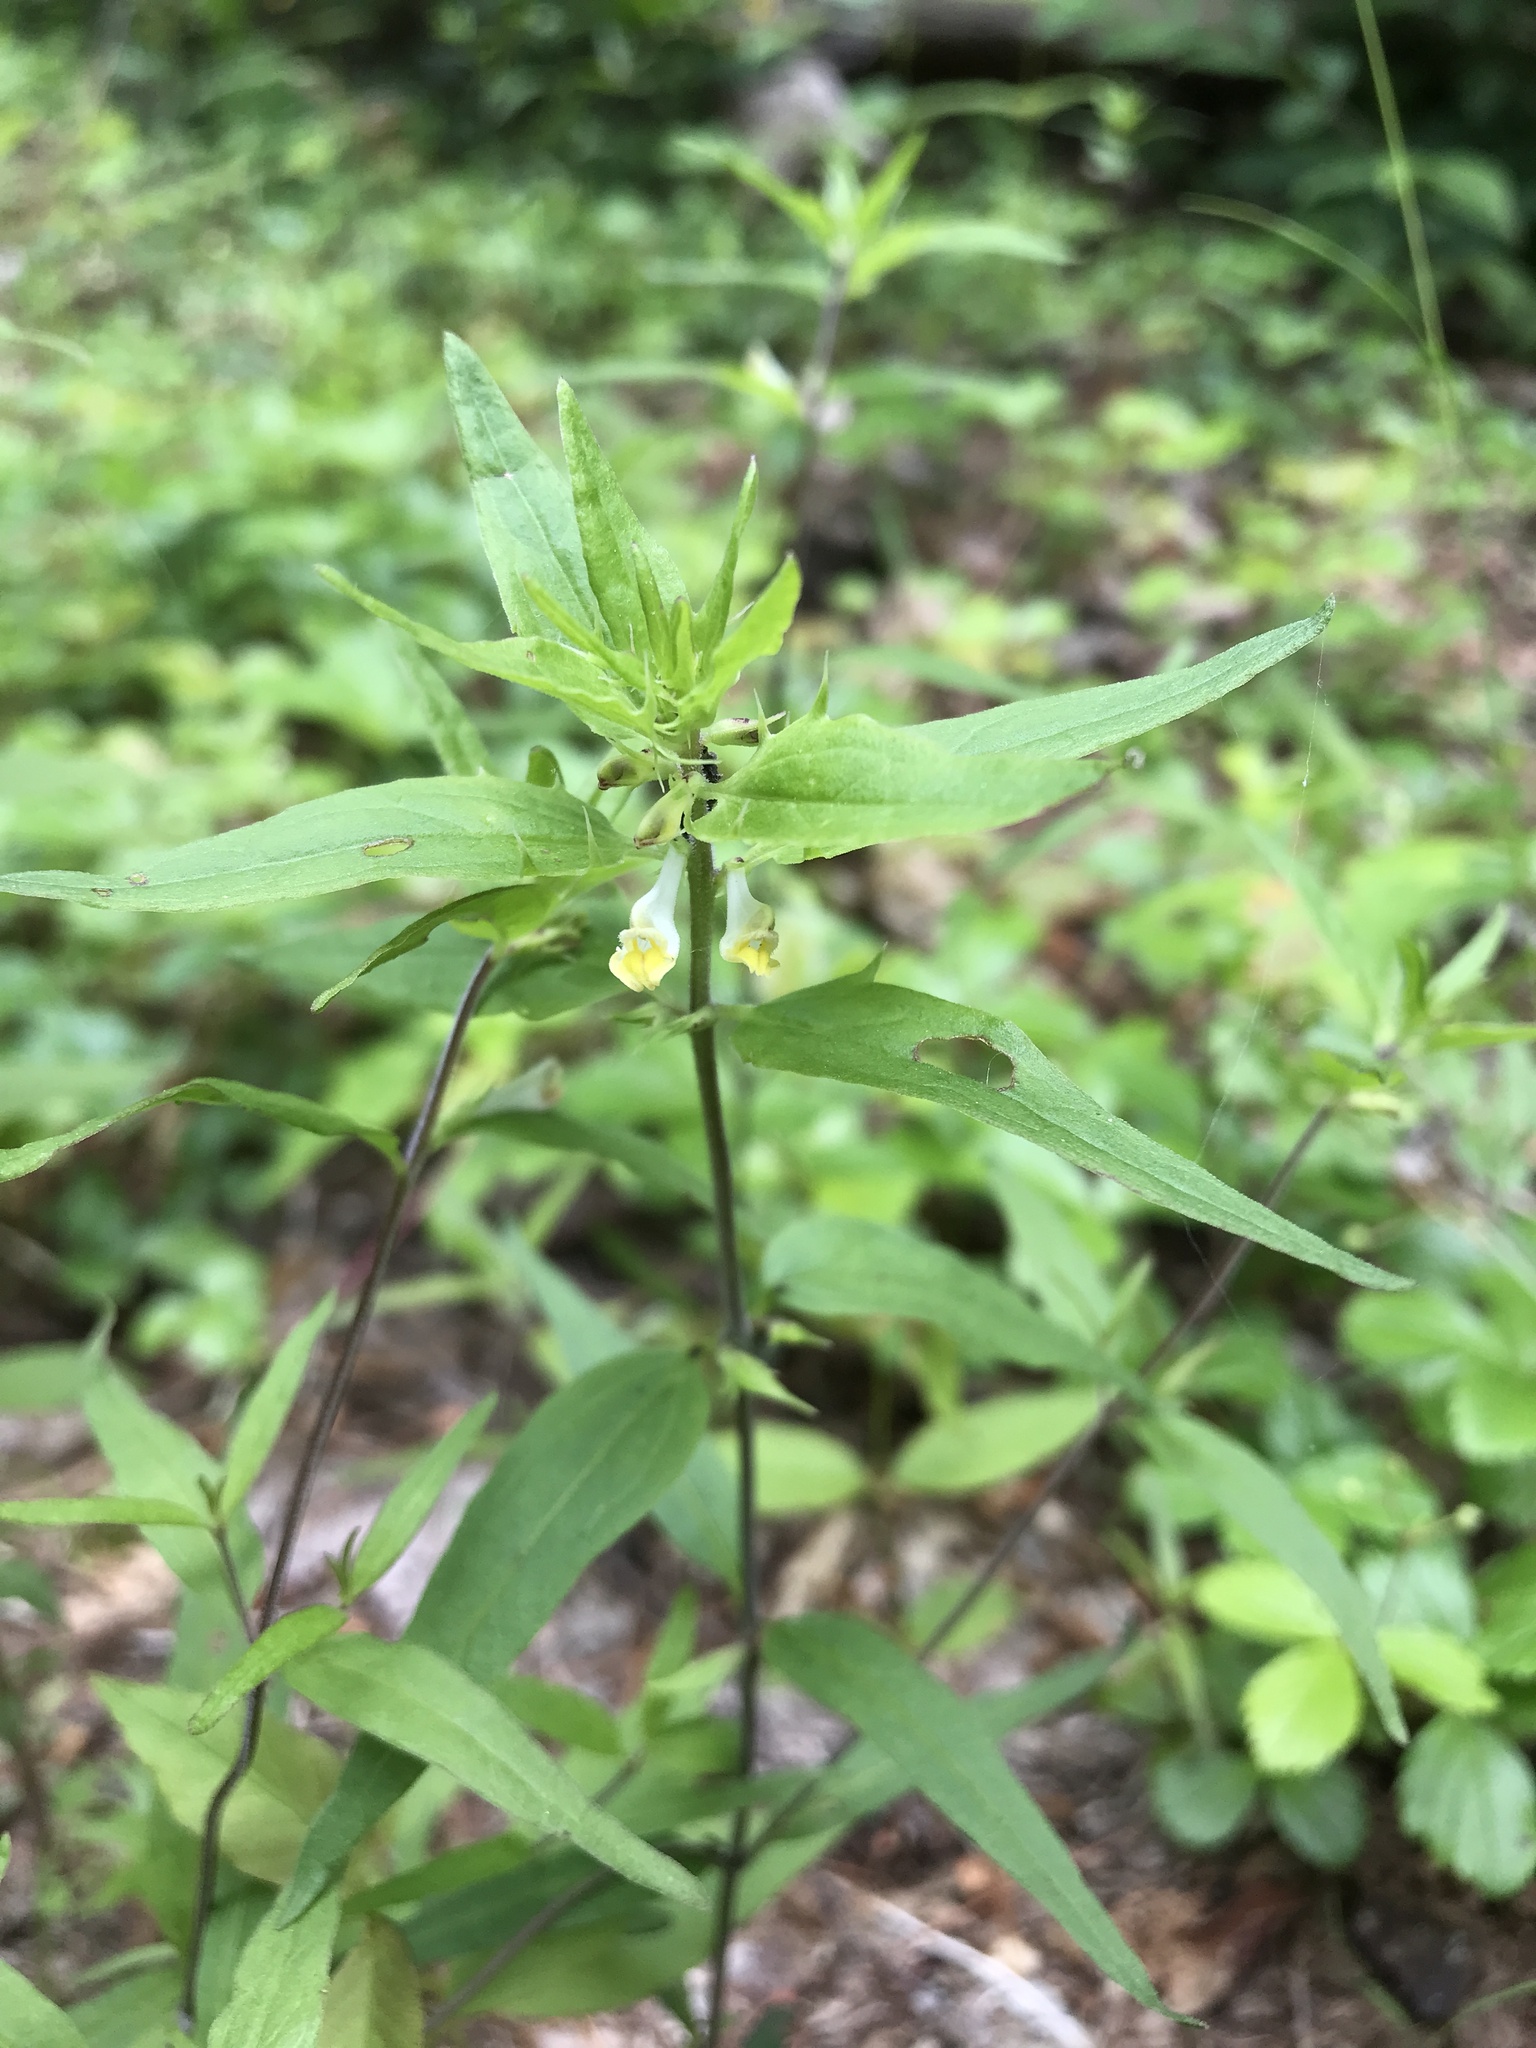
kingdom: Plantae
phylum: Tracheophyta
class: Magnoliopsida
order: Lamiales
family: Orobanchaceae
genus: Melampyrum
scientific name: Melampyrum lineare
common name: American cow-wheat
